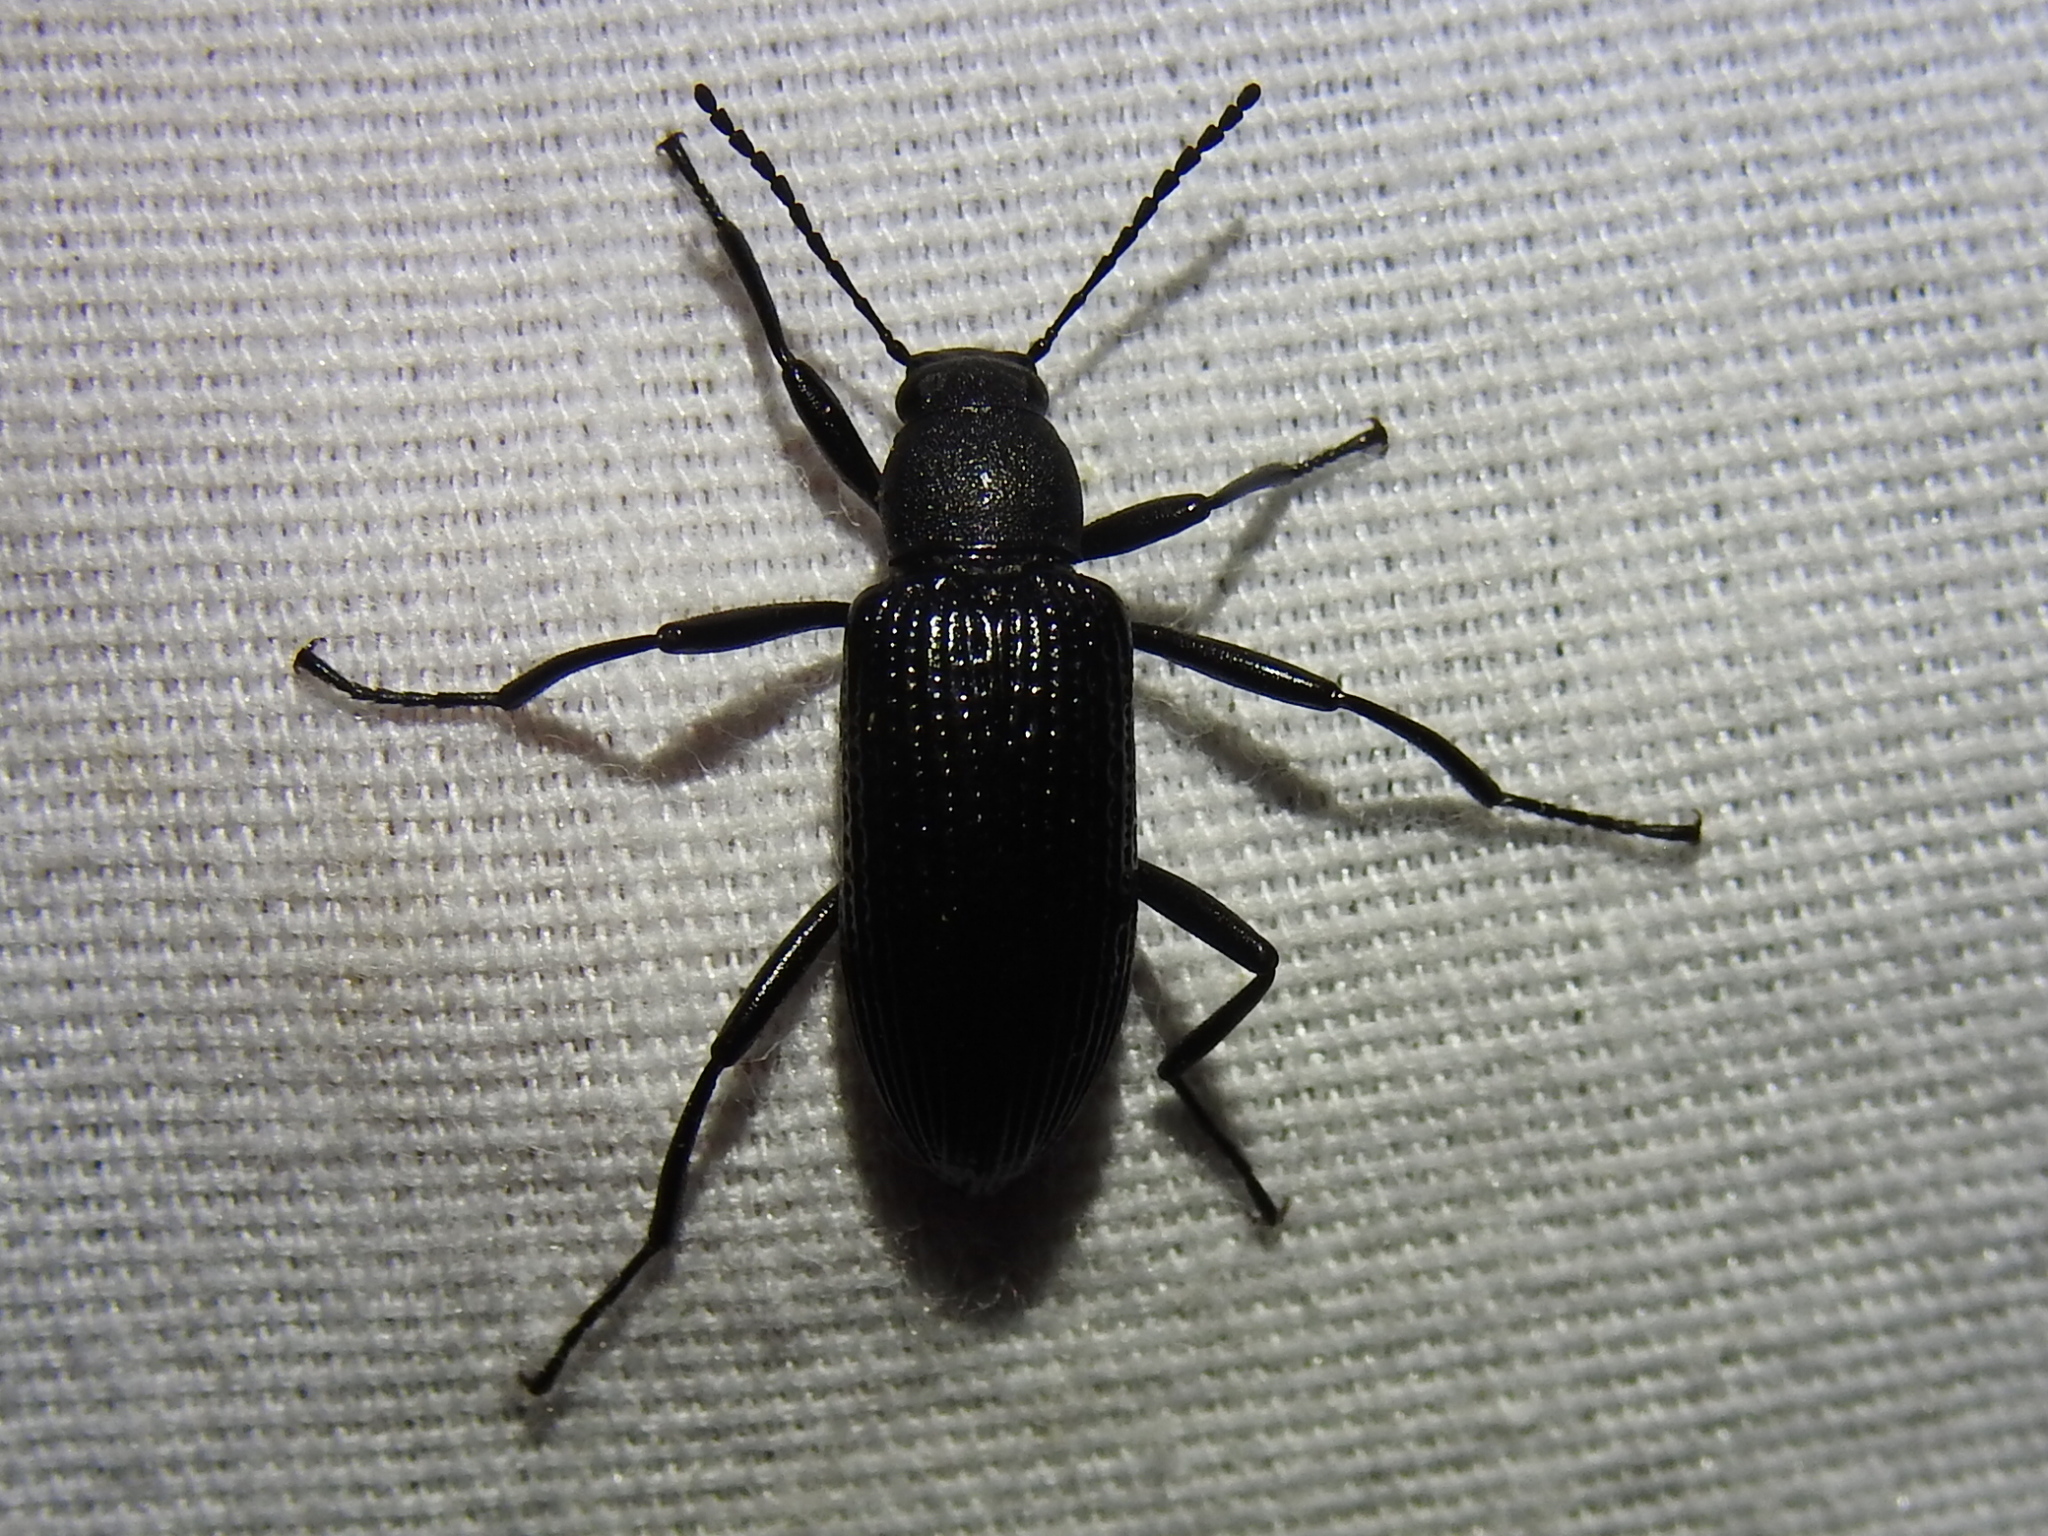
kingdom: Animalia
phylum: Arthropoda
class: Insecta
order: Coleoptera
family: Tenebrionidae
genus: Strongylium
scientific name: Strongylium hemistriatum
